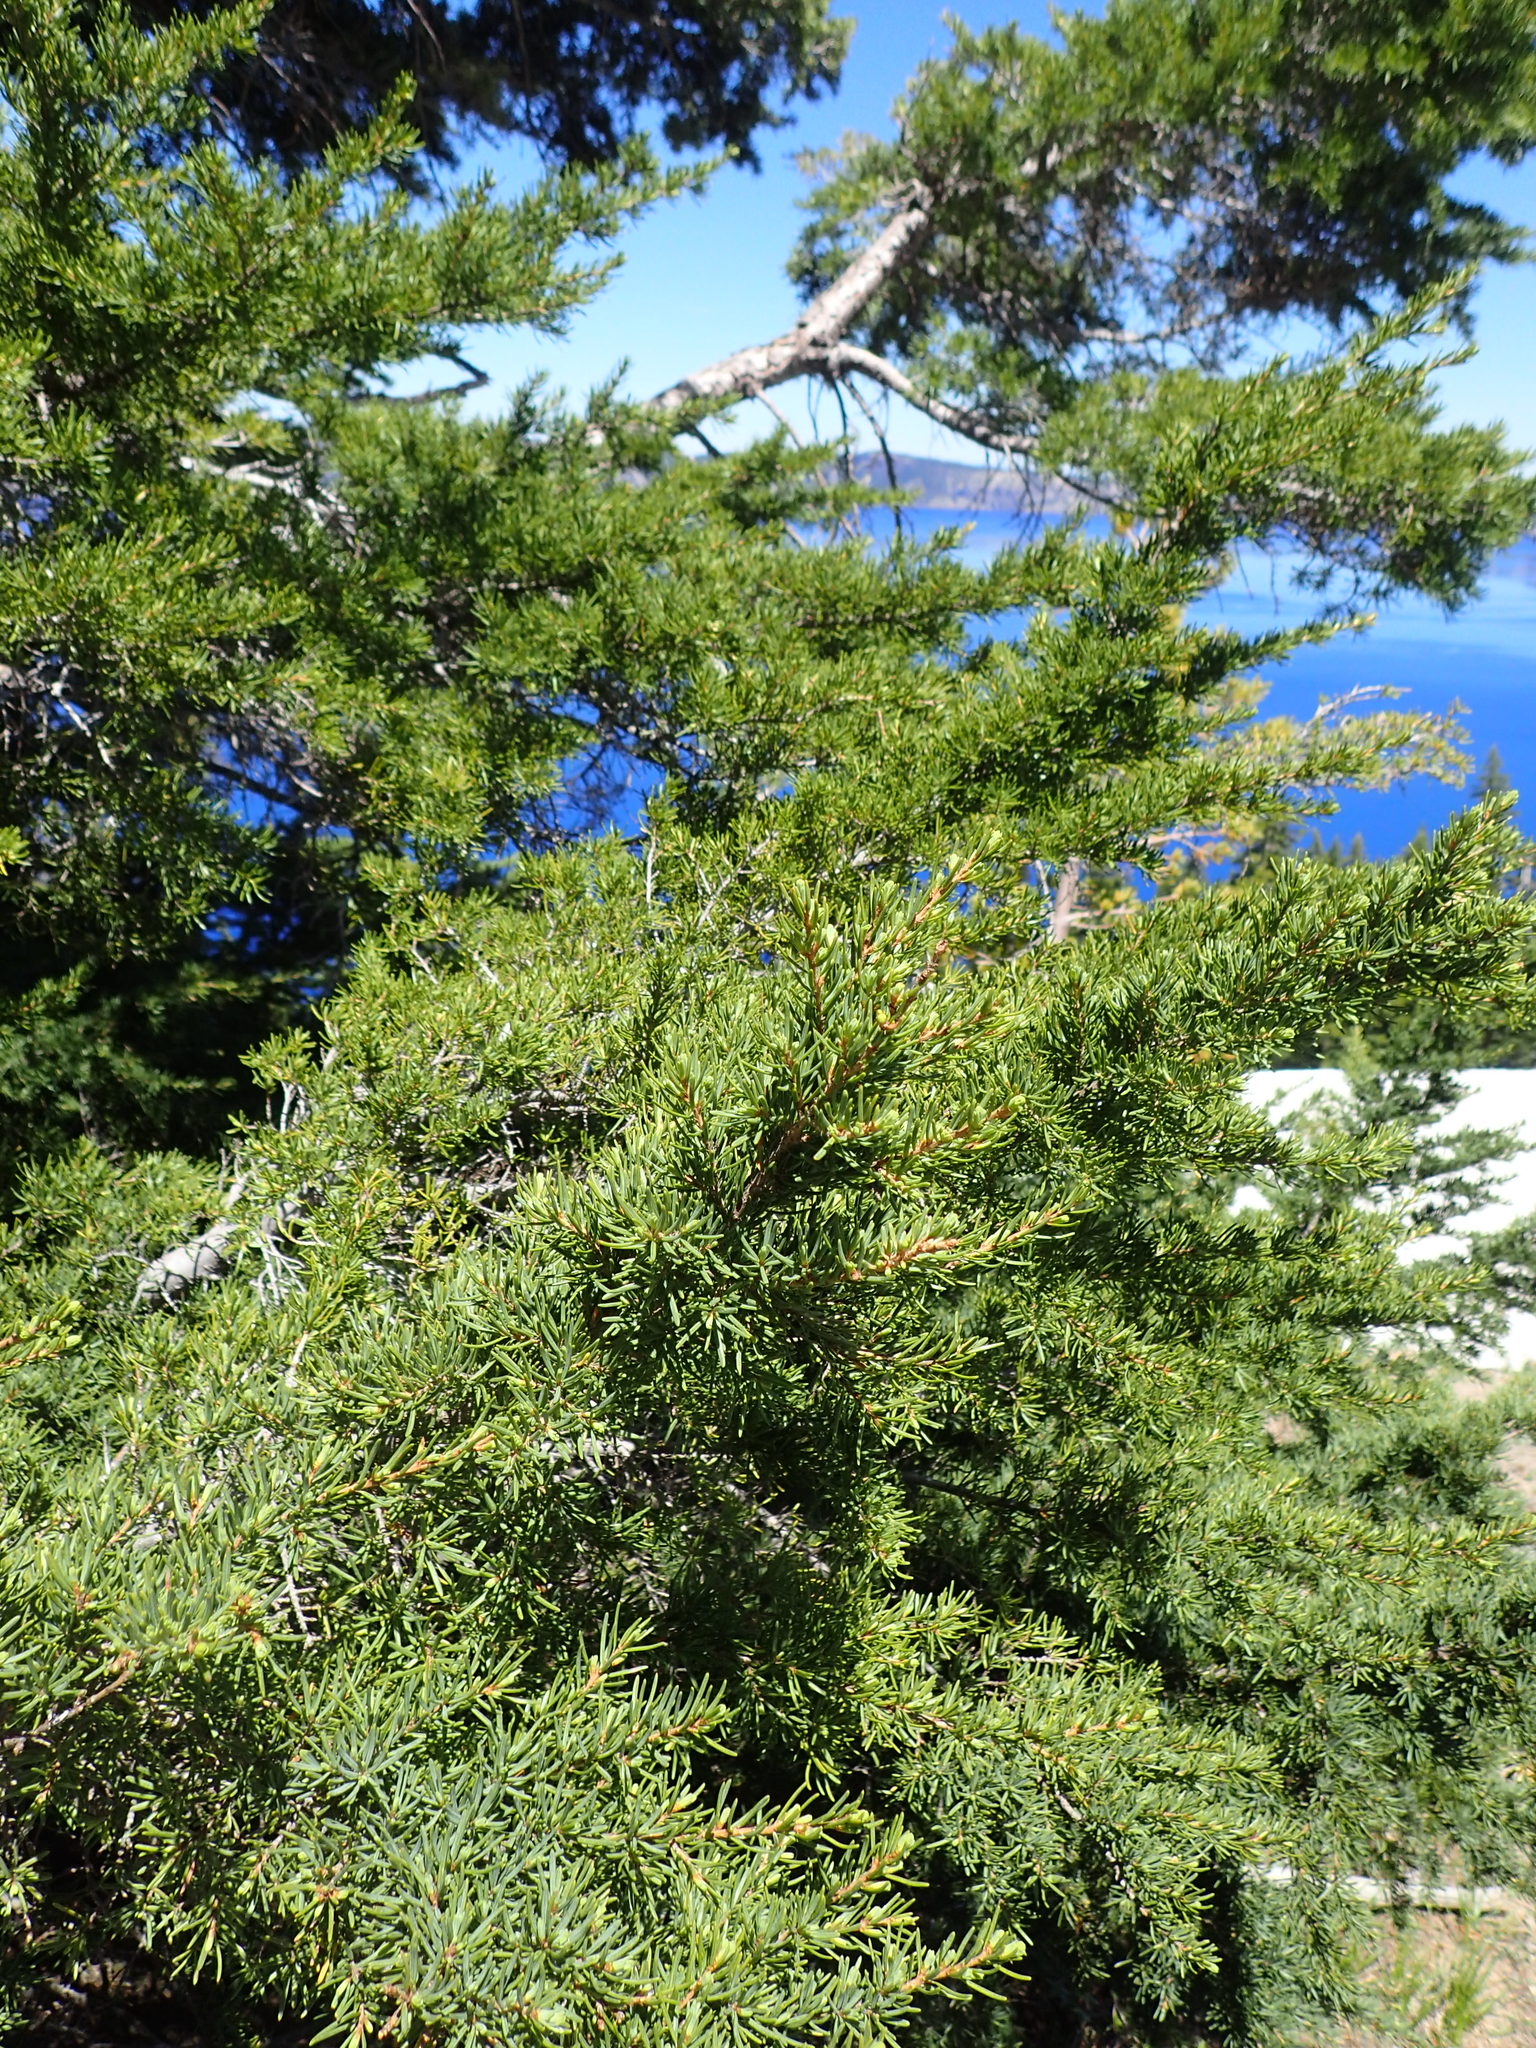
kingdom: Plantae
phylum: Tracheophyta
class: Pinopsida
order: Pinales
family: Pinaceae
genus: Tsuga
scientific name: Tsuga mertensiana
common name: Mountain hemlock
